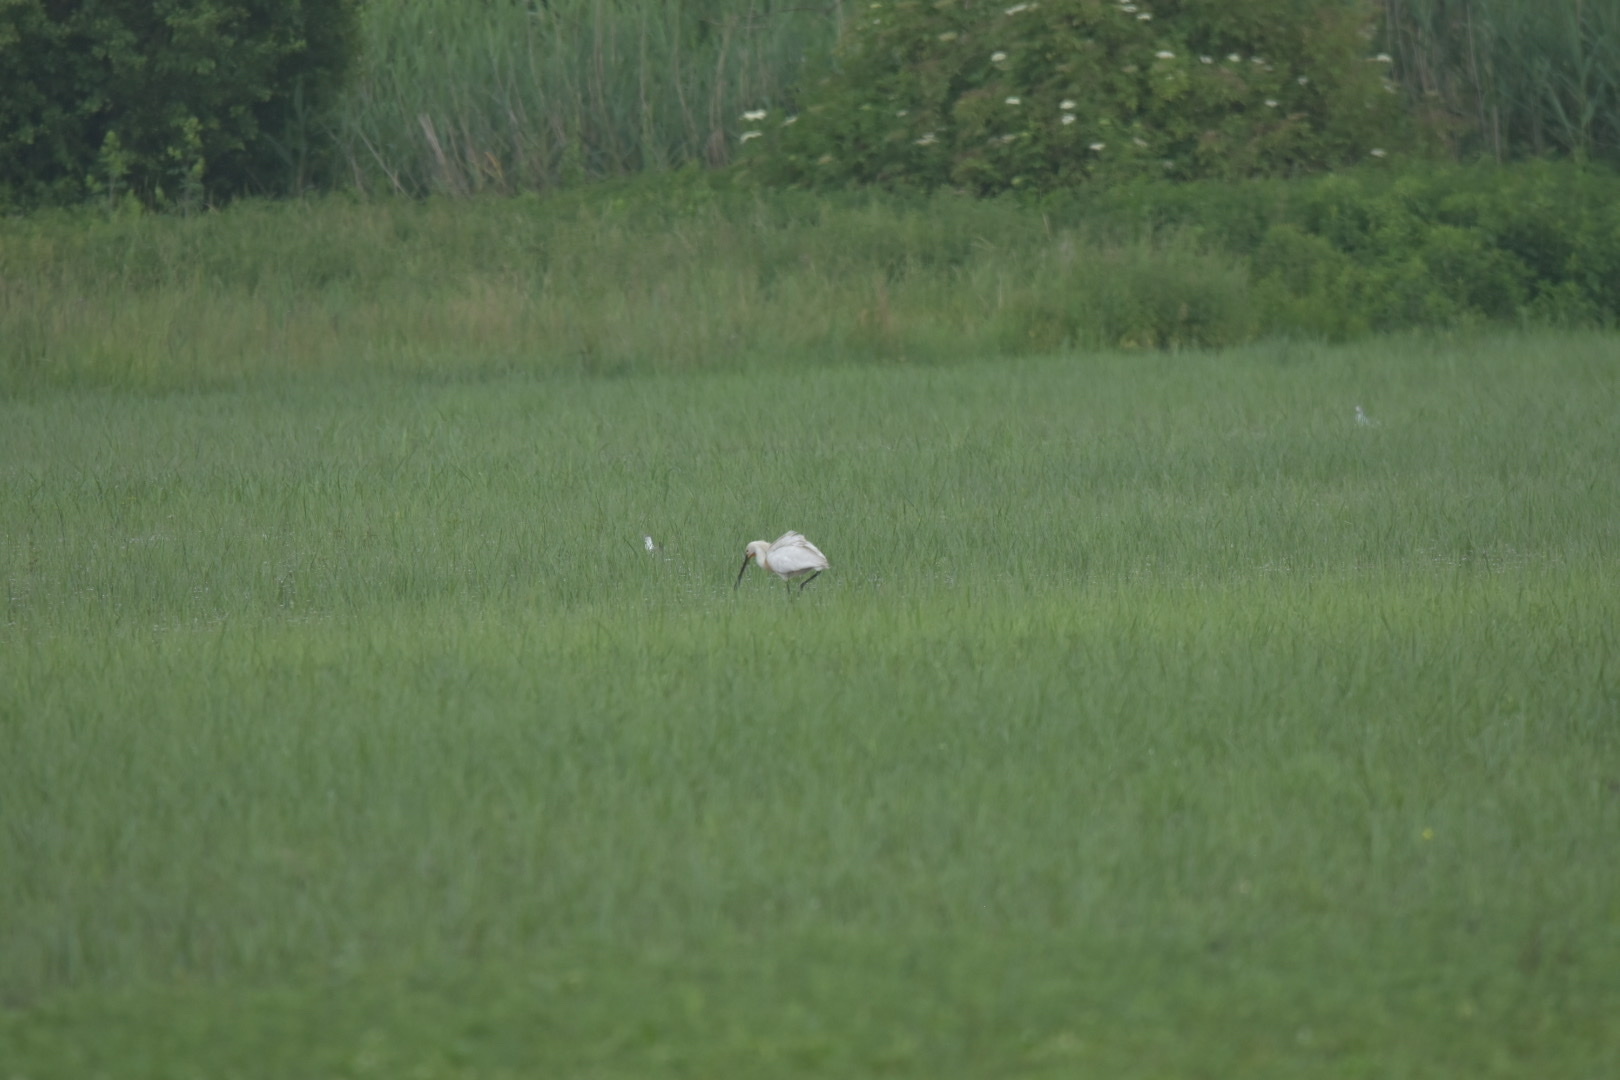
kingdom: Animalia
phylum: Chordata
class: Aves
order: Pelecaniformes
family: Threskiornithidae
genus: Platalea
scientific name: Platalea leucorodia
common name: Eurasian spoonbill
